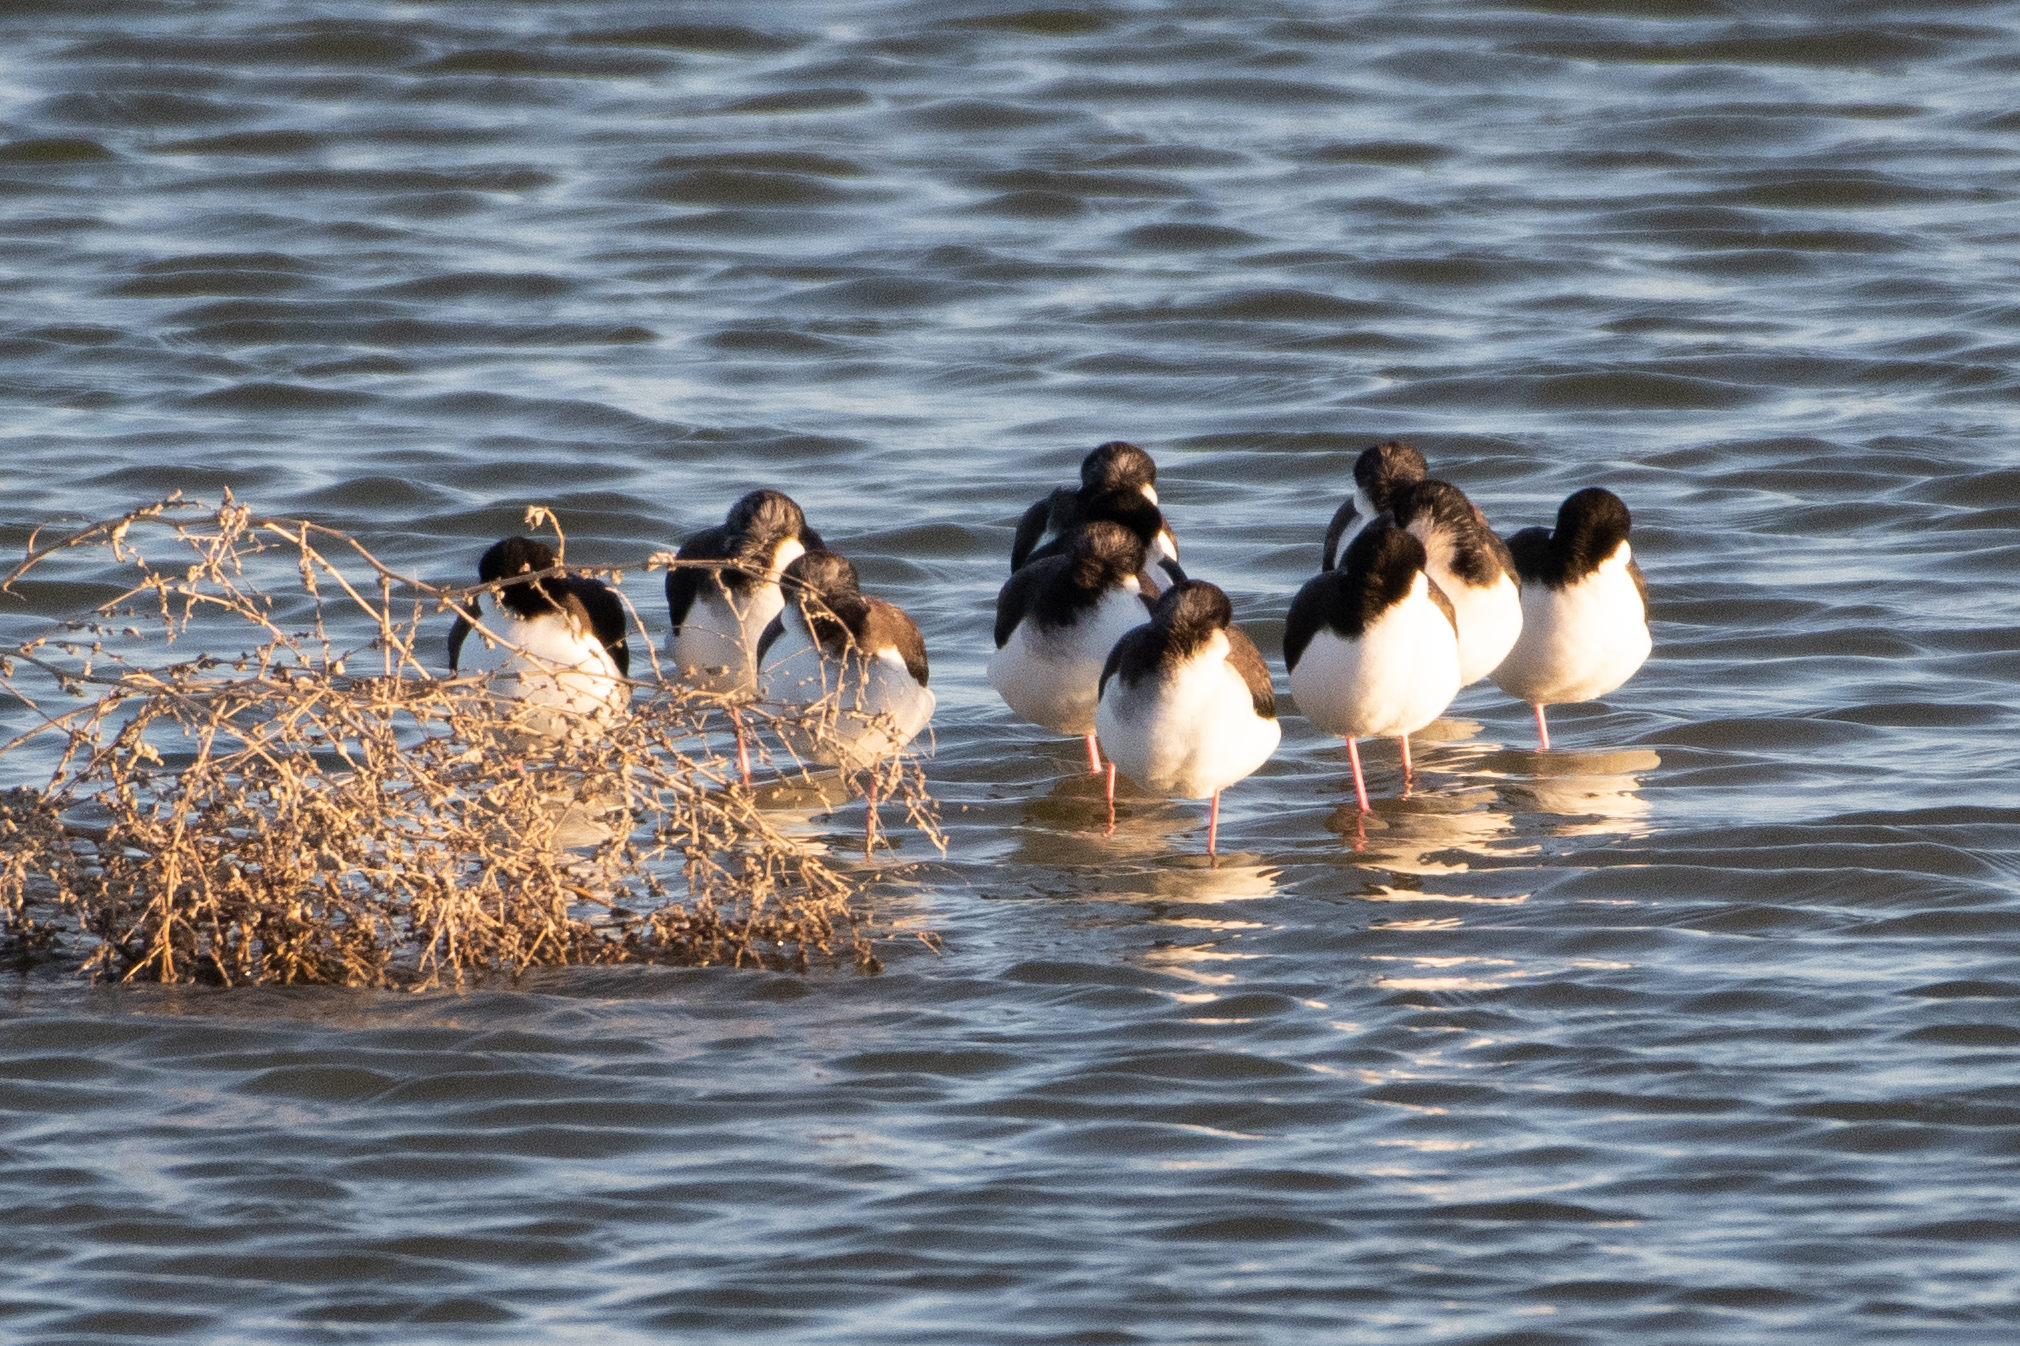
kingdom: Animalia
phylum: Chordata
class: Aves
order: Charadriiformes
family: Recurvirostridae
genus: Himantopus
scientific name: Himantopus mexicanus
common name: Black-necked stilt
